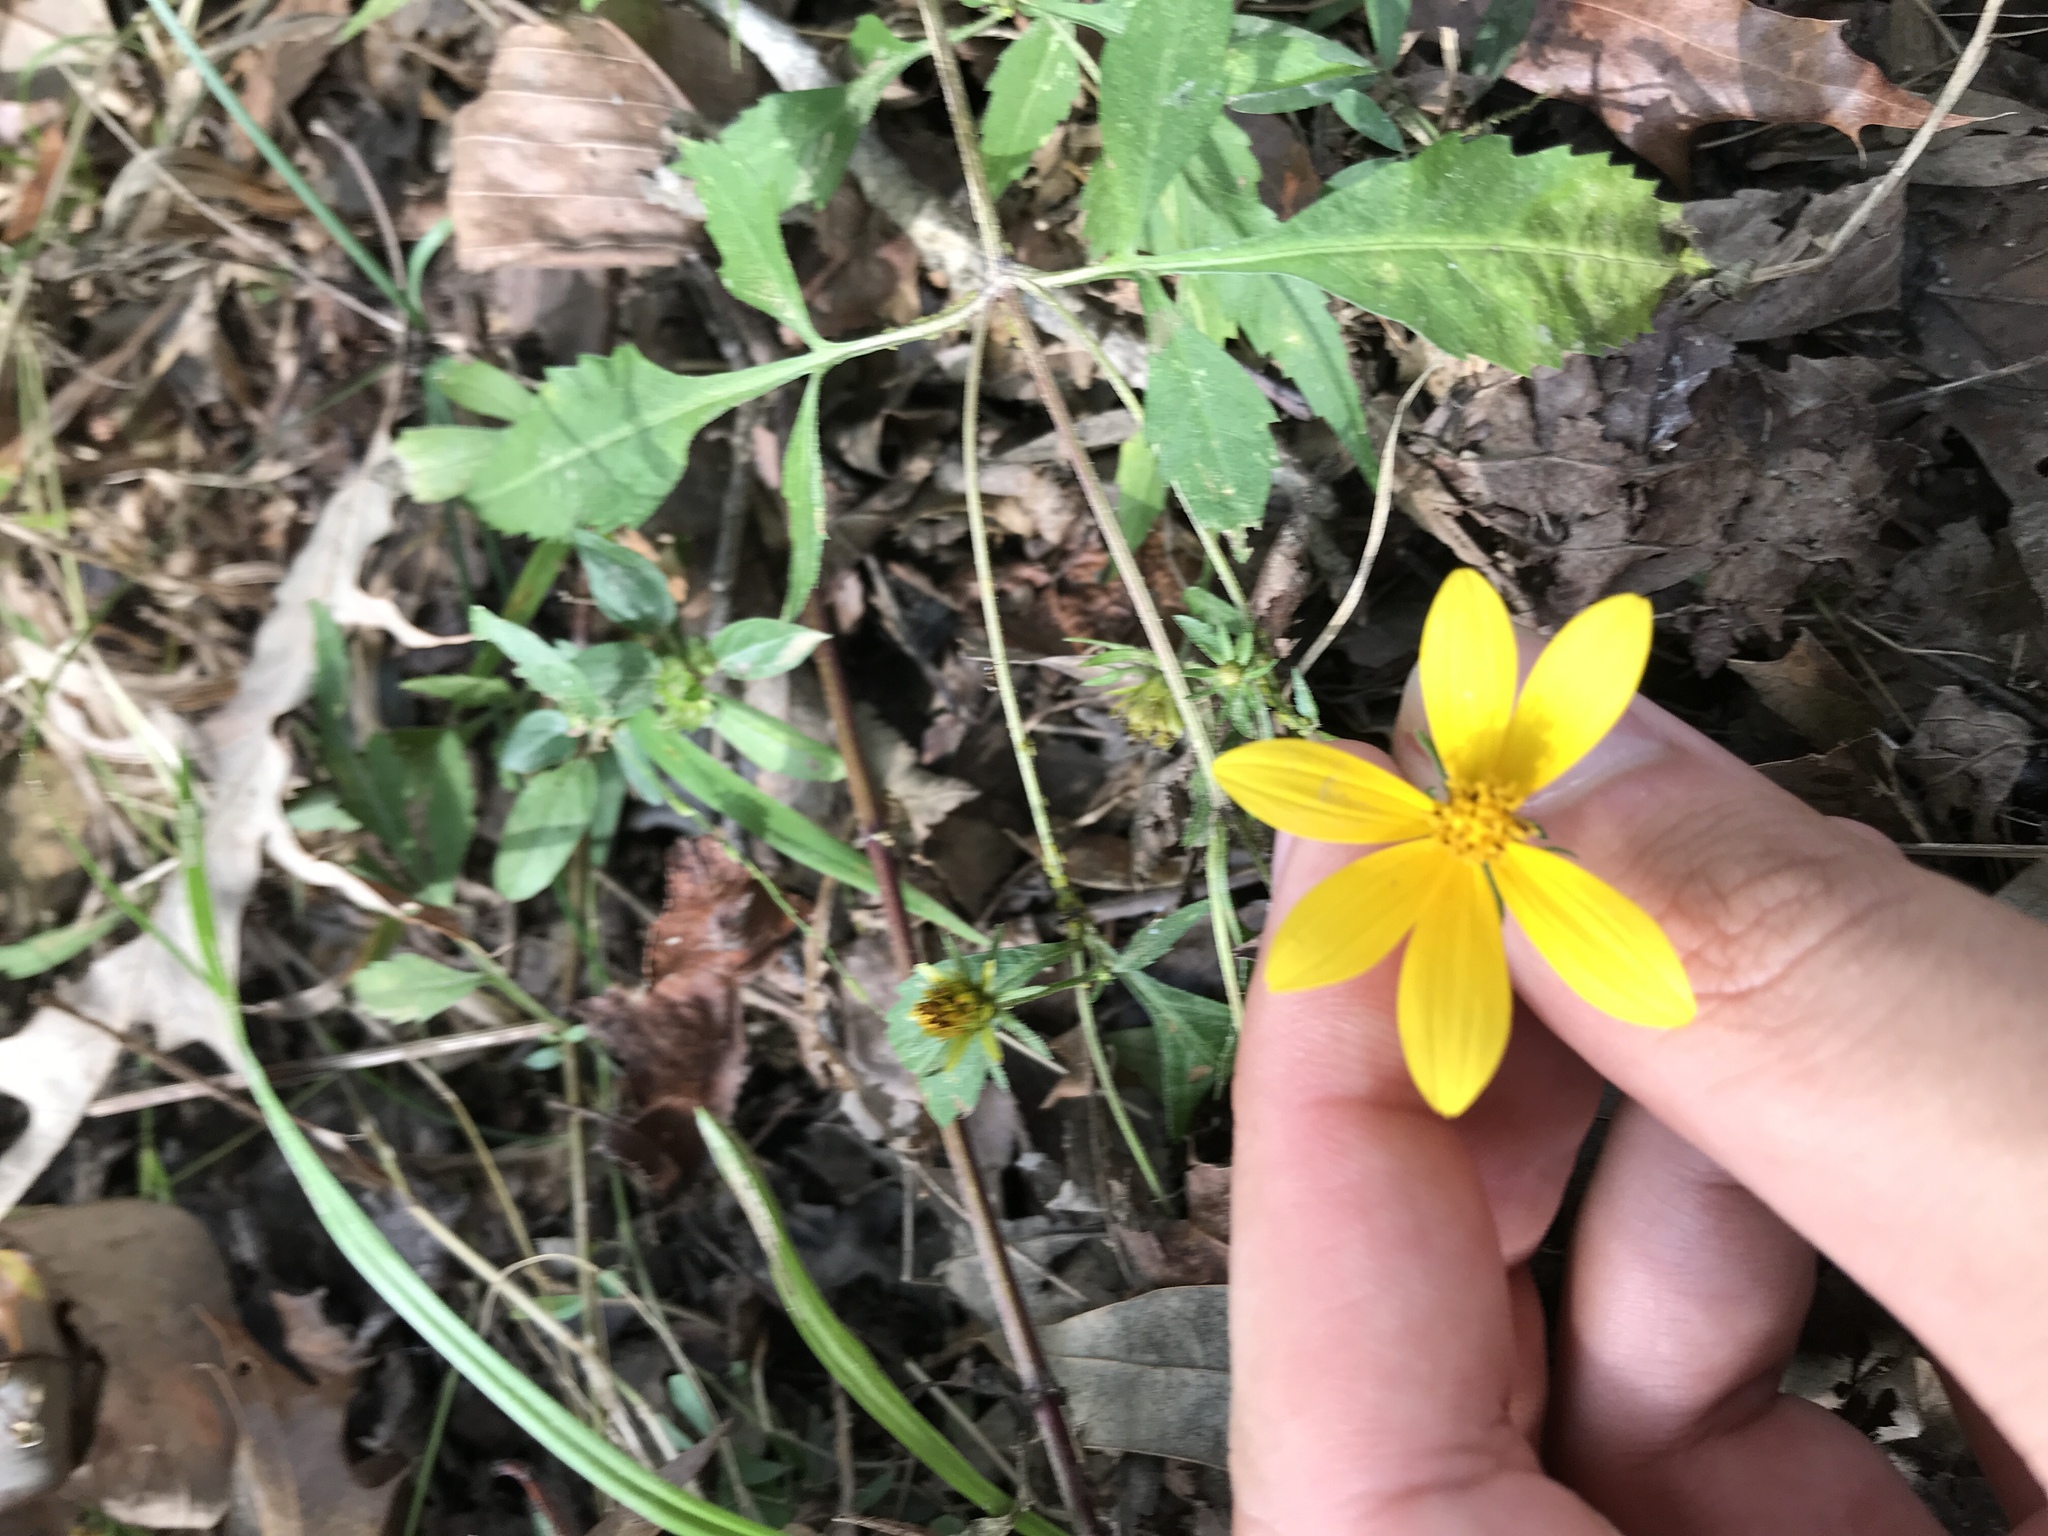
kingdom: Plantae
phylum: Tracheophyta
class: Magnoliopsida
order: Asterales
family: Asteraceae
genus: Bidens
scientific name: Bidens aristosa
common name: Western tickseed
